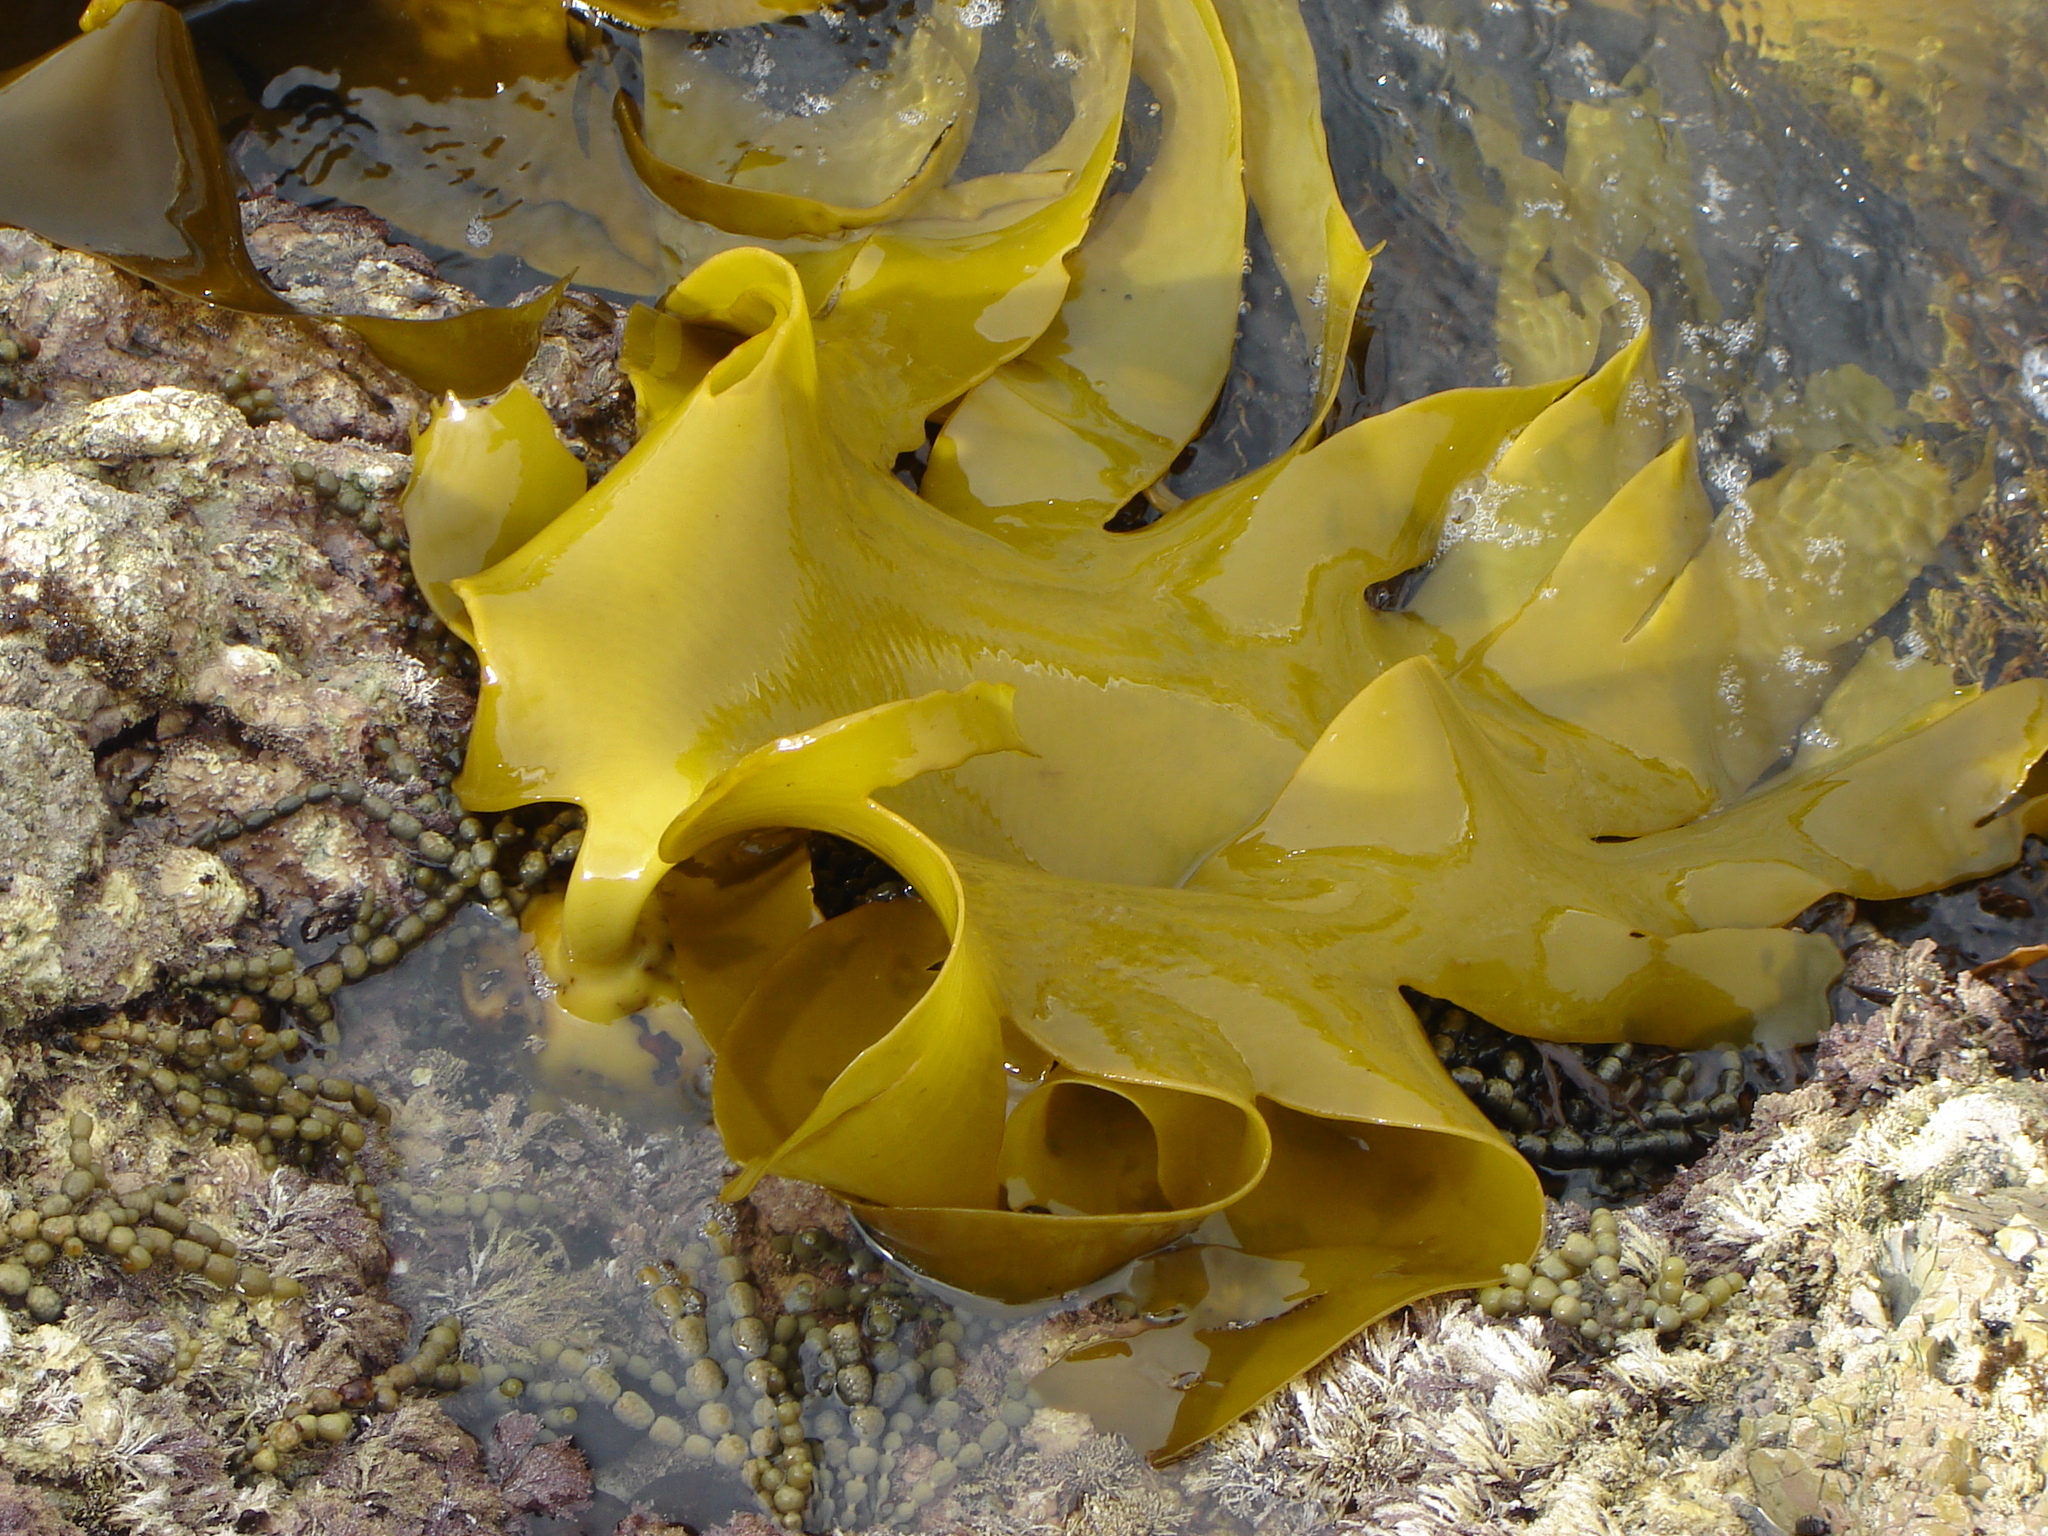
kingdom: Chromista
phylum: Ochrophyta
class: Phaeophyceae
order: Fucales
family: Durvillaeaceae
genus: Durvillaea
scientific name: Durvillaea poha
